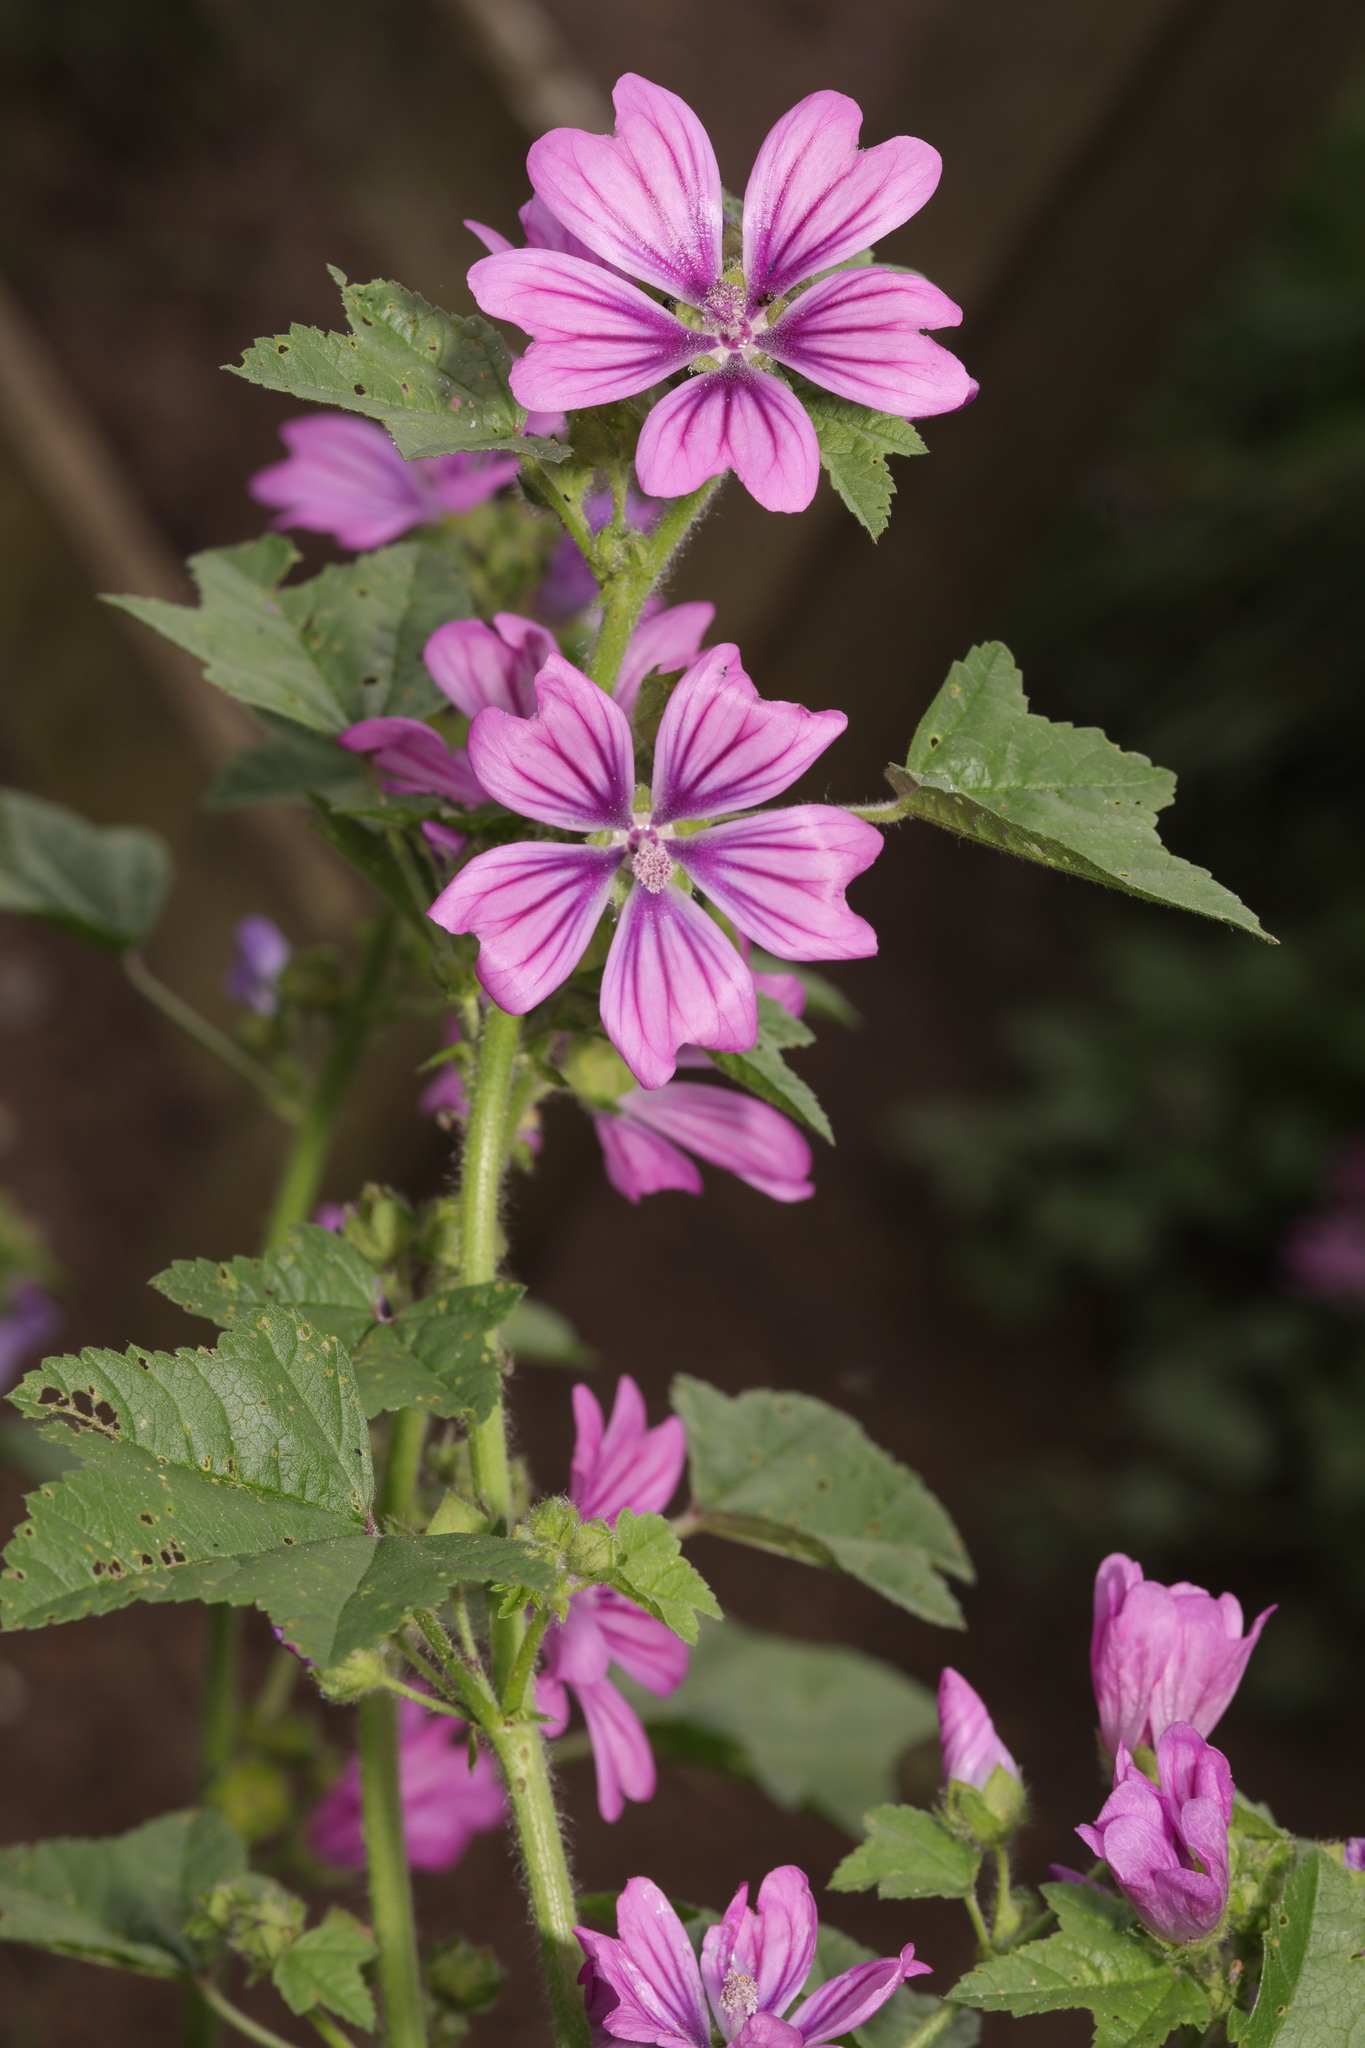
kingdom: Plantae
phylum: Tracheophyta
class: Magnoliopsida
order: Malvales
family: Malvaceae
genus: Malva
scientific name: Malva sylvestris
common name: Common mallow
